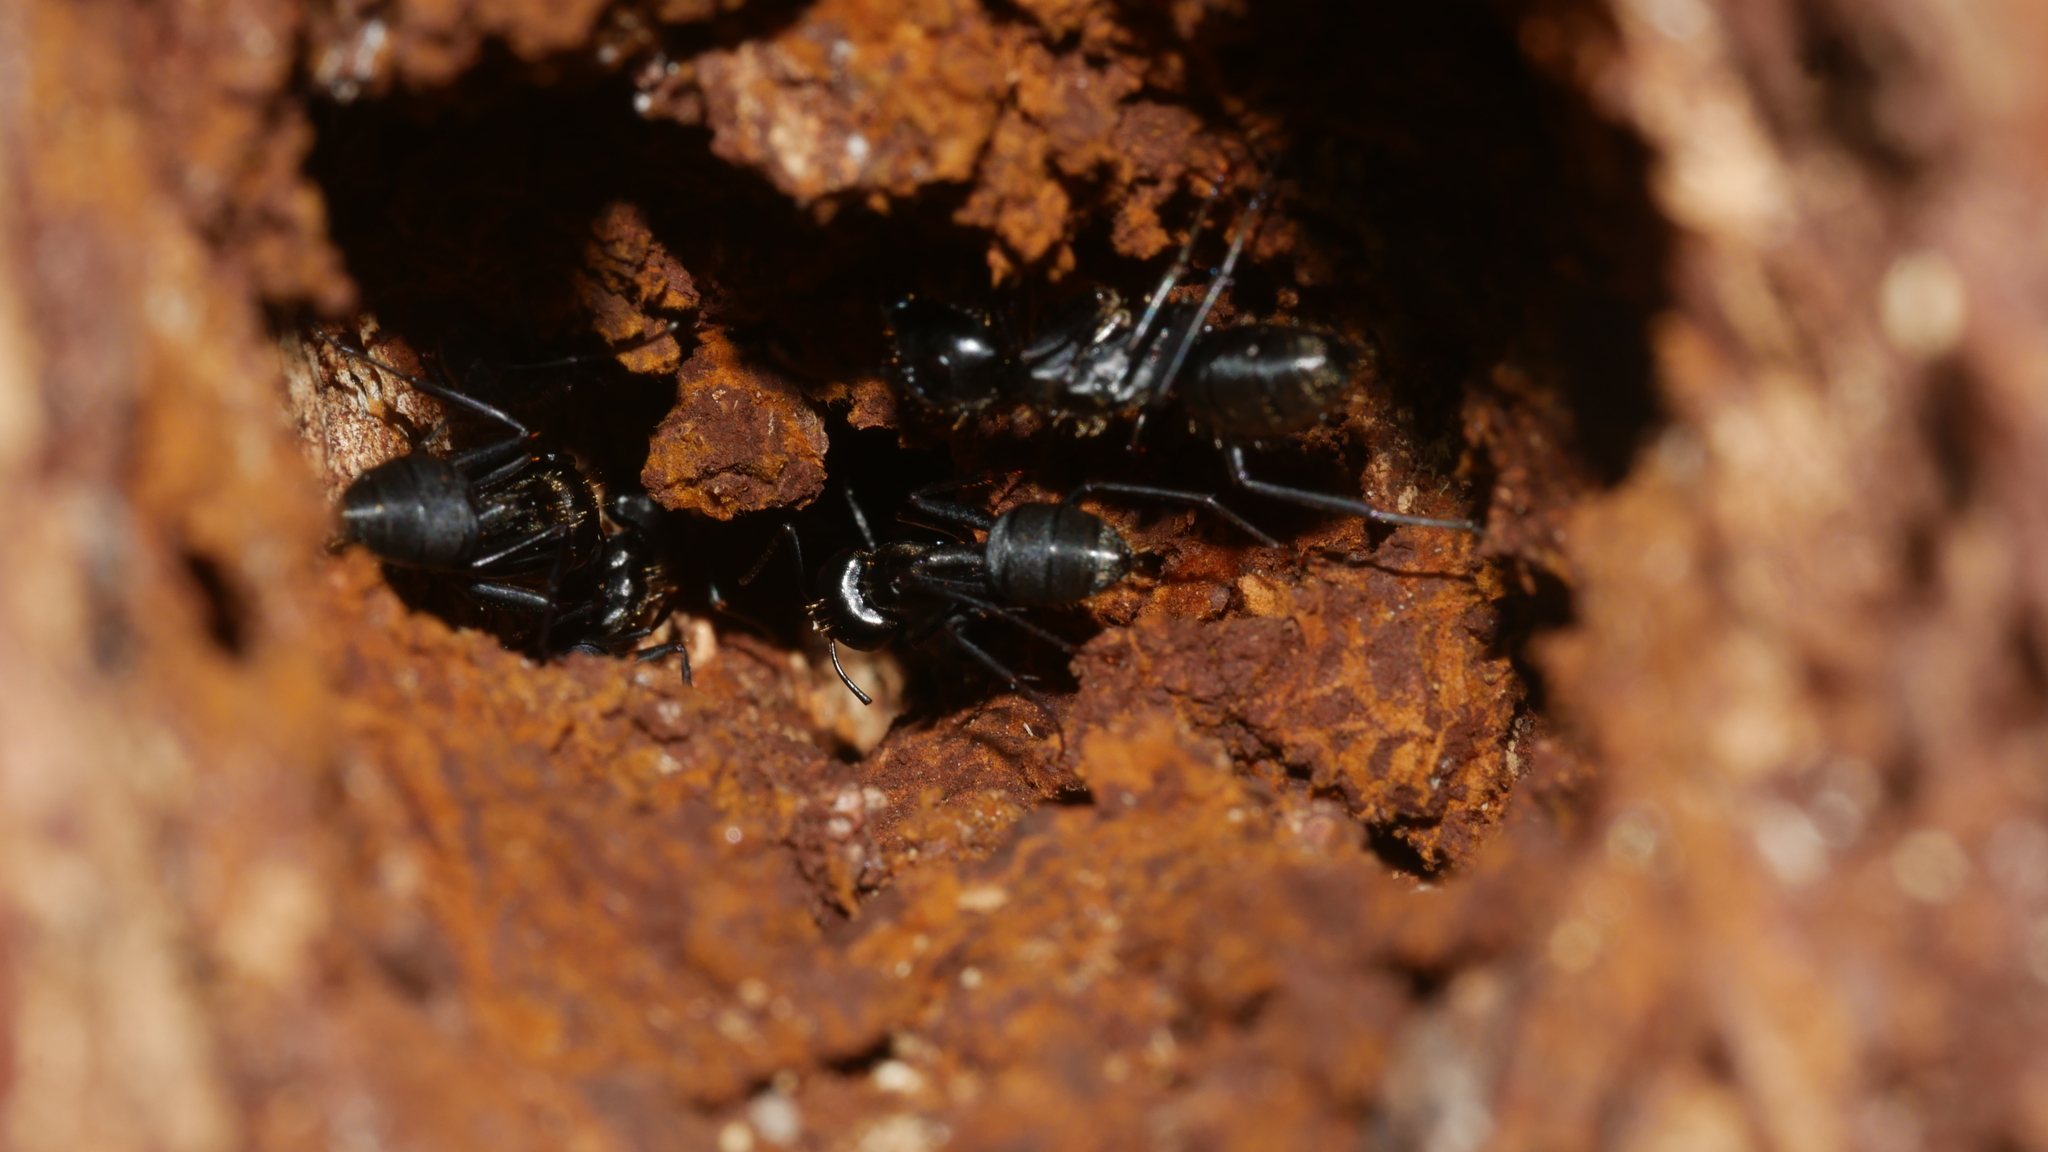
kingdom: Animalia
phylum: Arthropoda
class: Insecta
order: Hymenoptera
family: Formicidae
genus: Camponotus
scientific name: Camponotus pennsylvanicus
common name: Black carpenter ant
